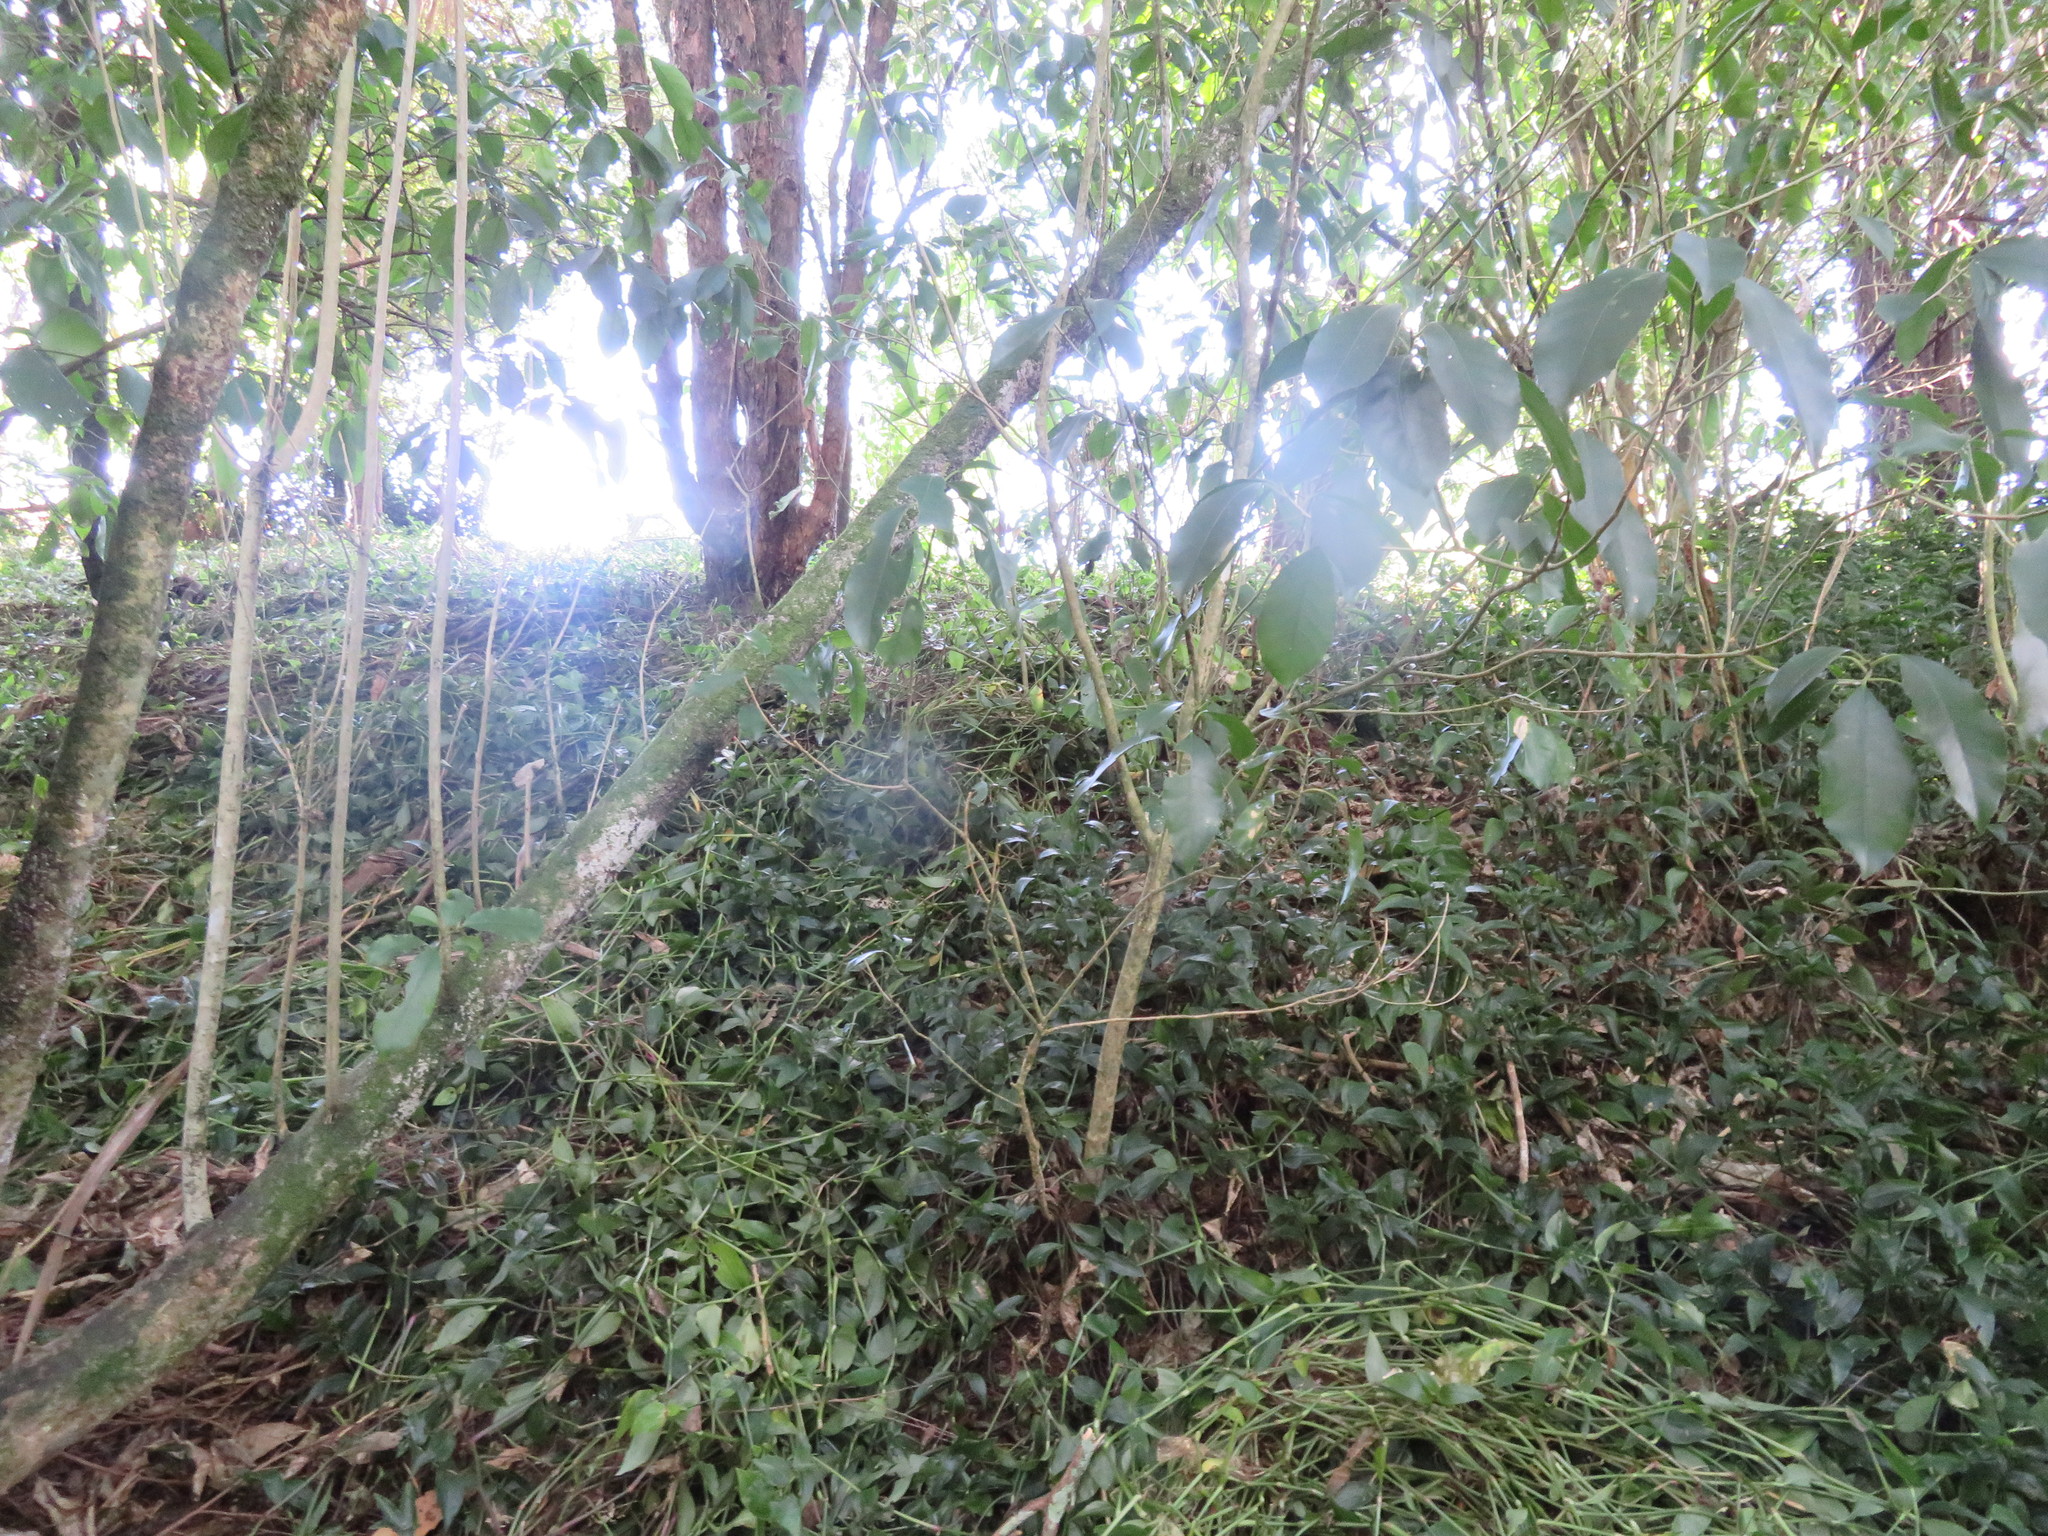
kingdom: Plantae
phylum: Tracheophyta
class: Magnoliopsida
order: Malpighiales
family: Violaceae
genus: Melicytus
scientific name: Melicytus ramiflorus
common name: Mahoe
